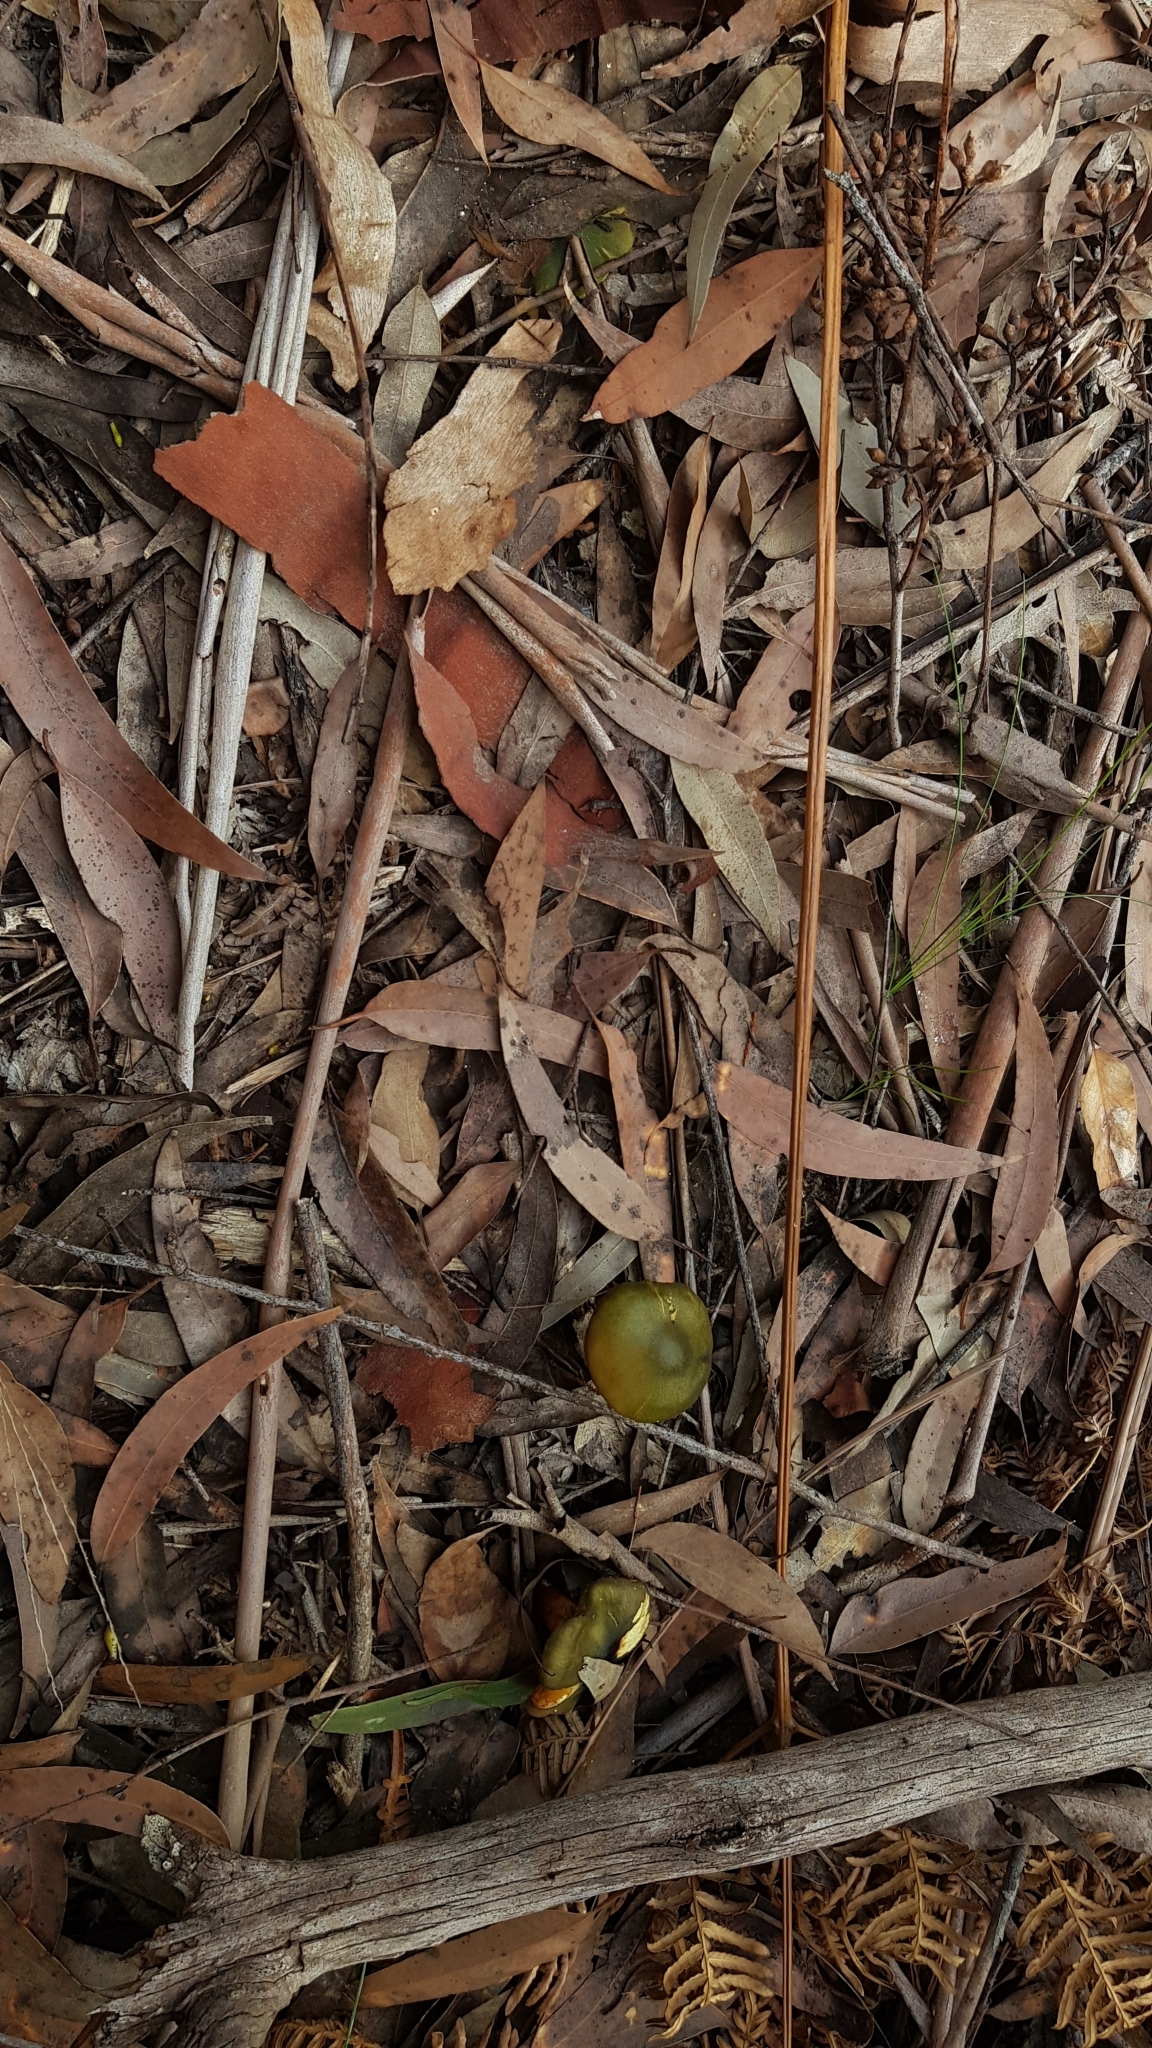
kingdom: Fungi
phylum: Basidiomycota
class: Agaricomycetes
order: Agaricales
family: Cortinariaceae
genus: Cortinarius
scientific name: Cortinarius austrovenetus
